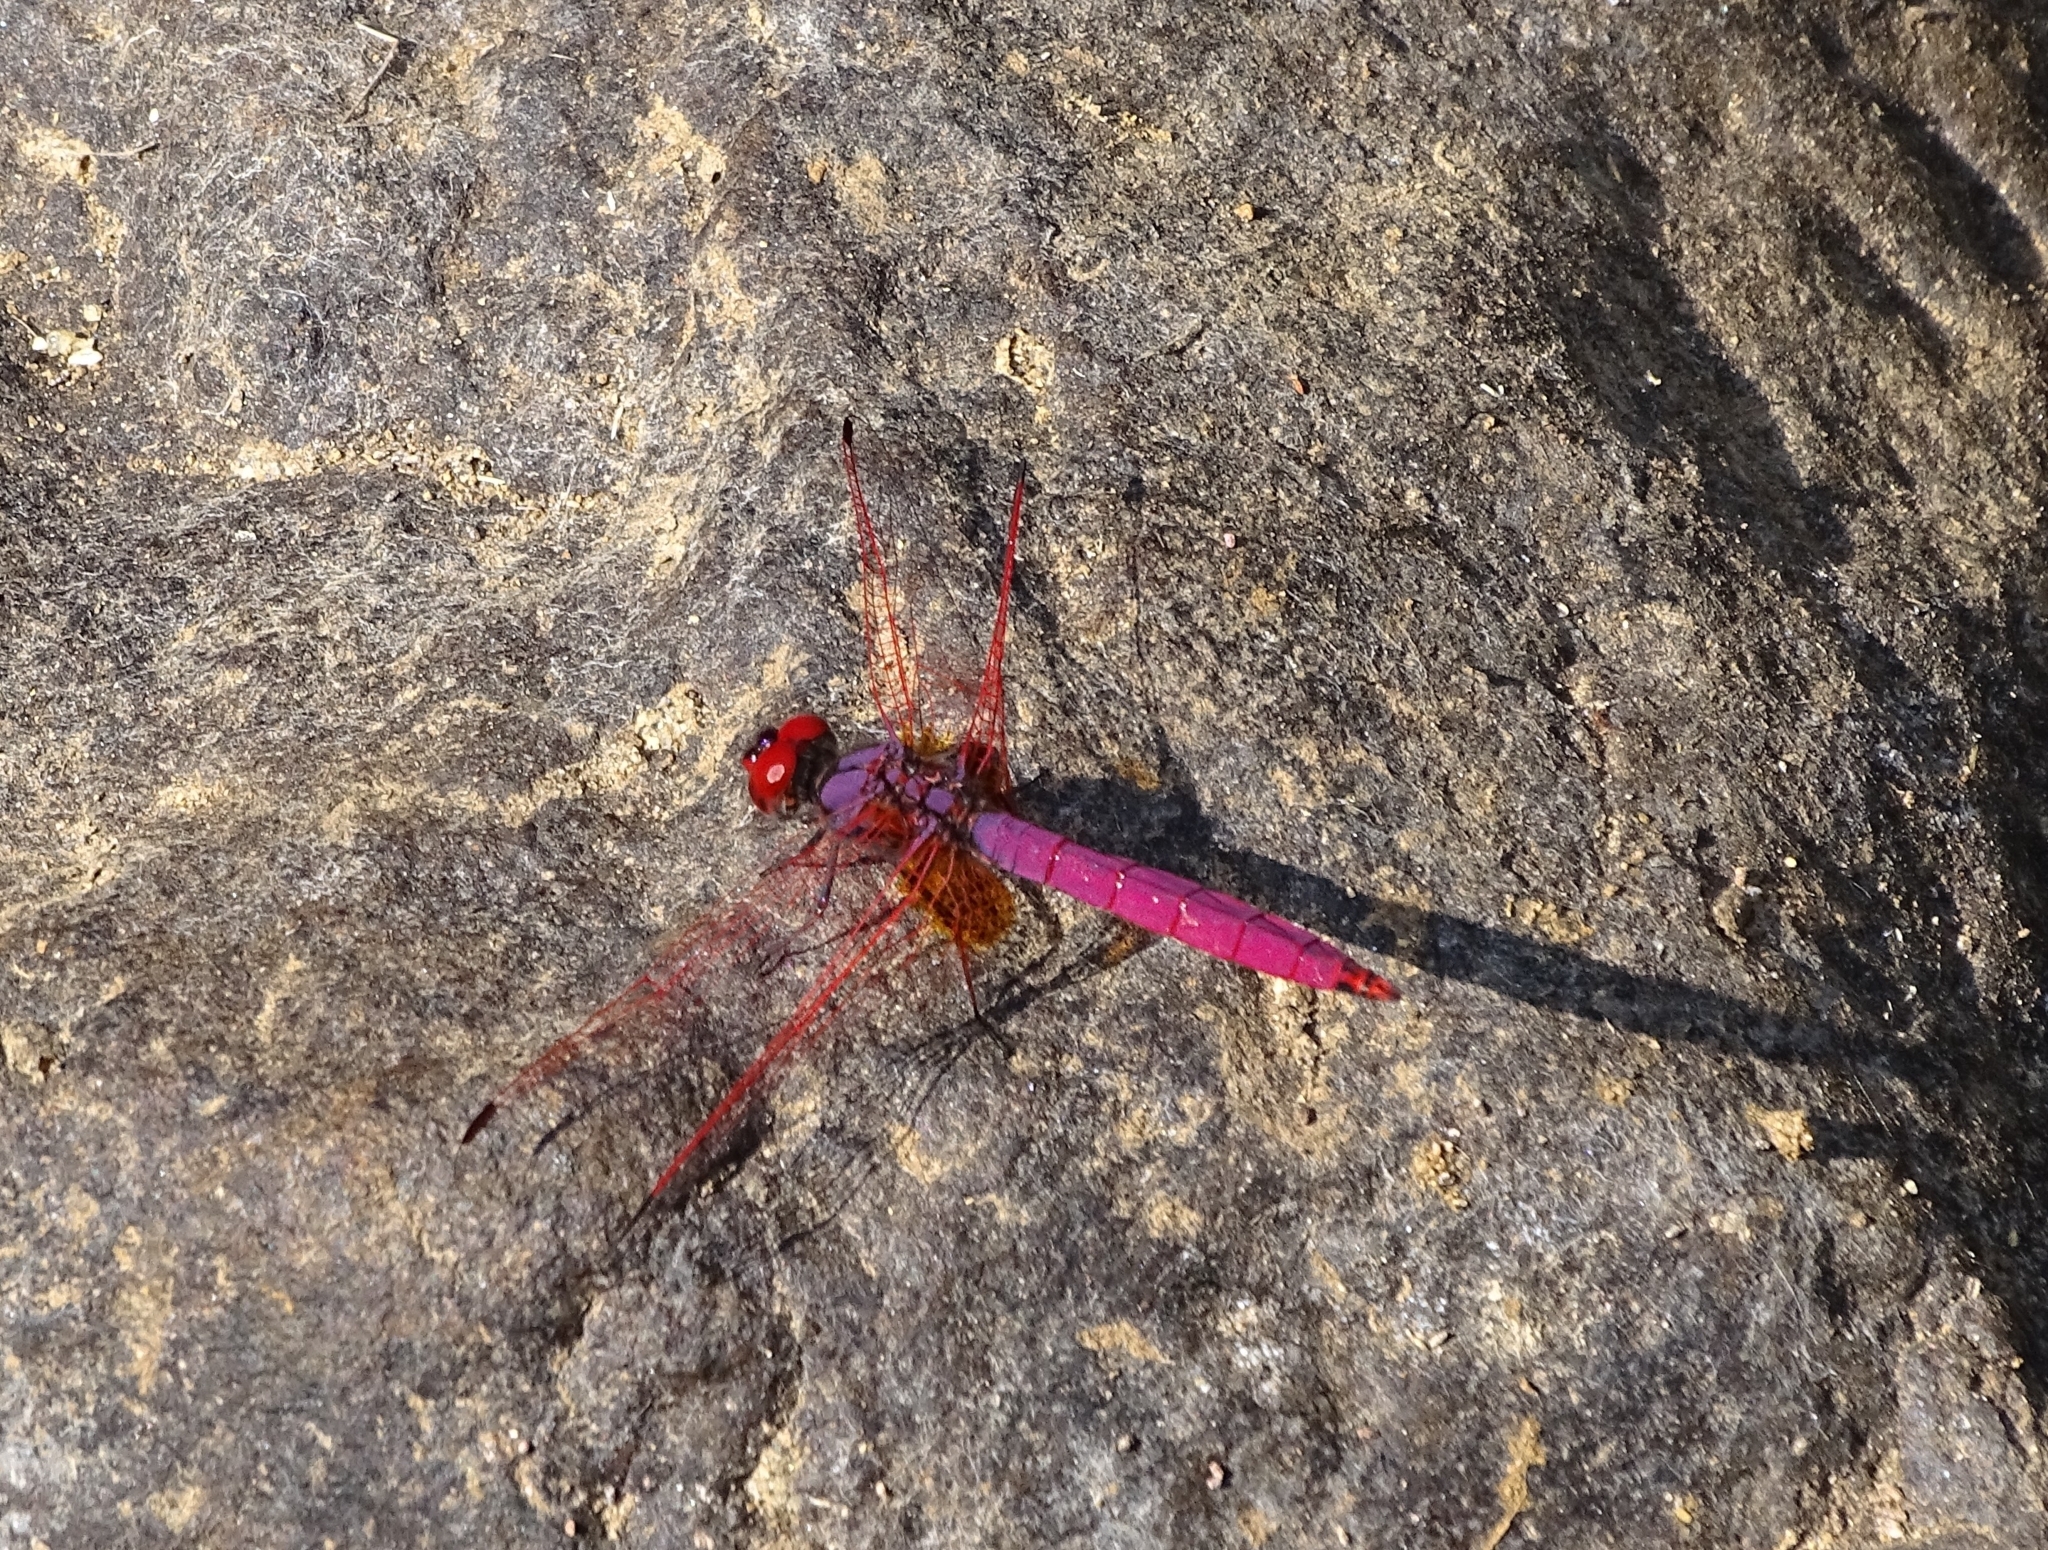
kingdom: Animalia
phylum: Arthropoda
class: Insecta
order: Odonata
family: Libellulidae
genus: Trithemis
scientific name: Trithemis aurora
